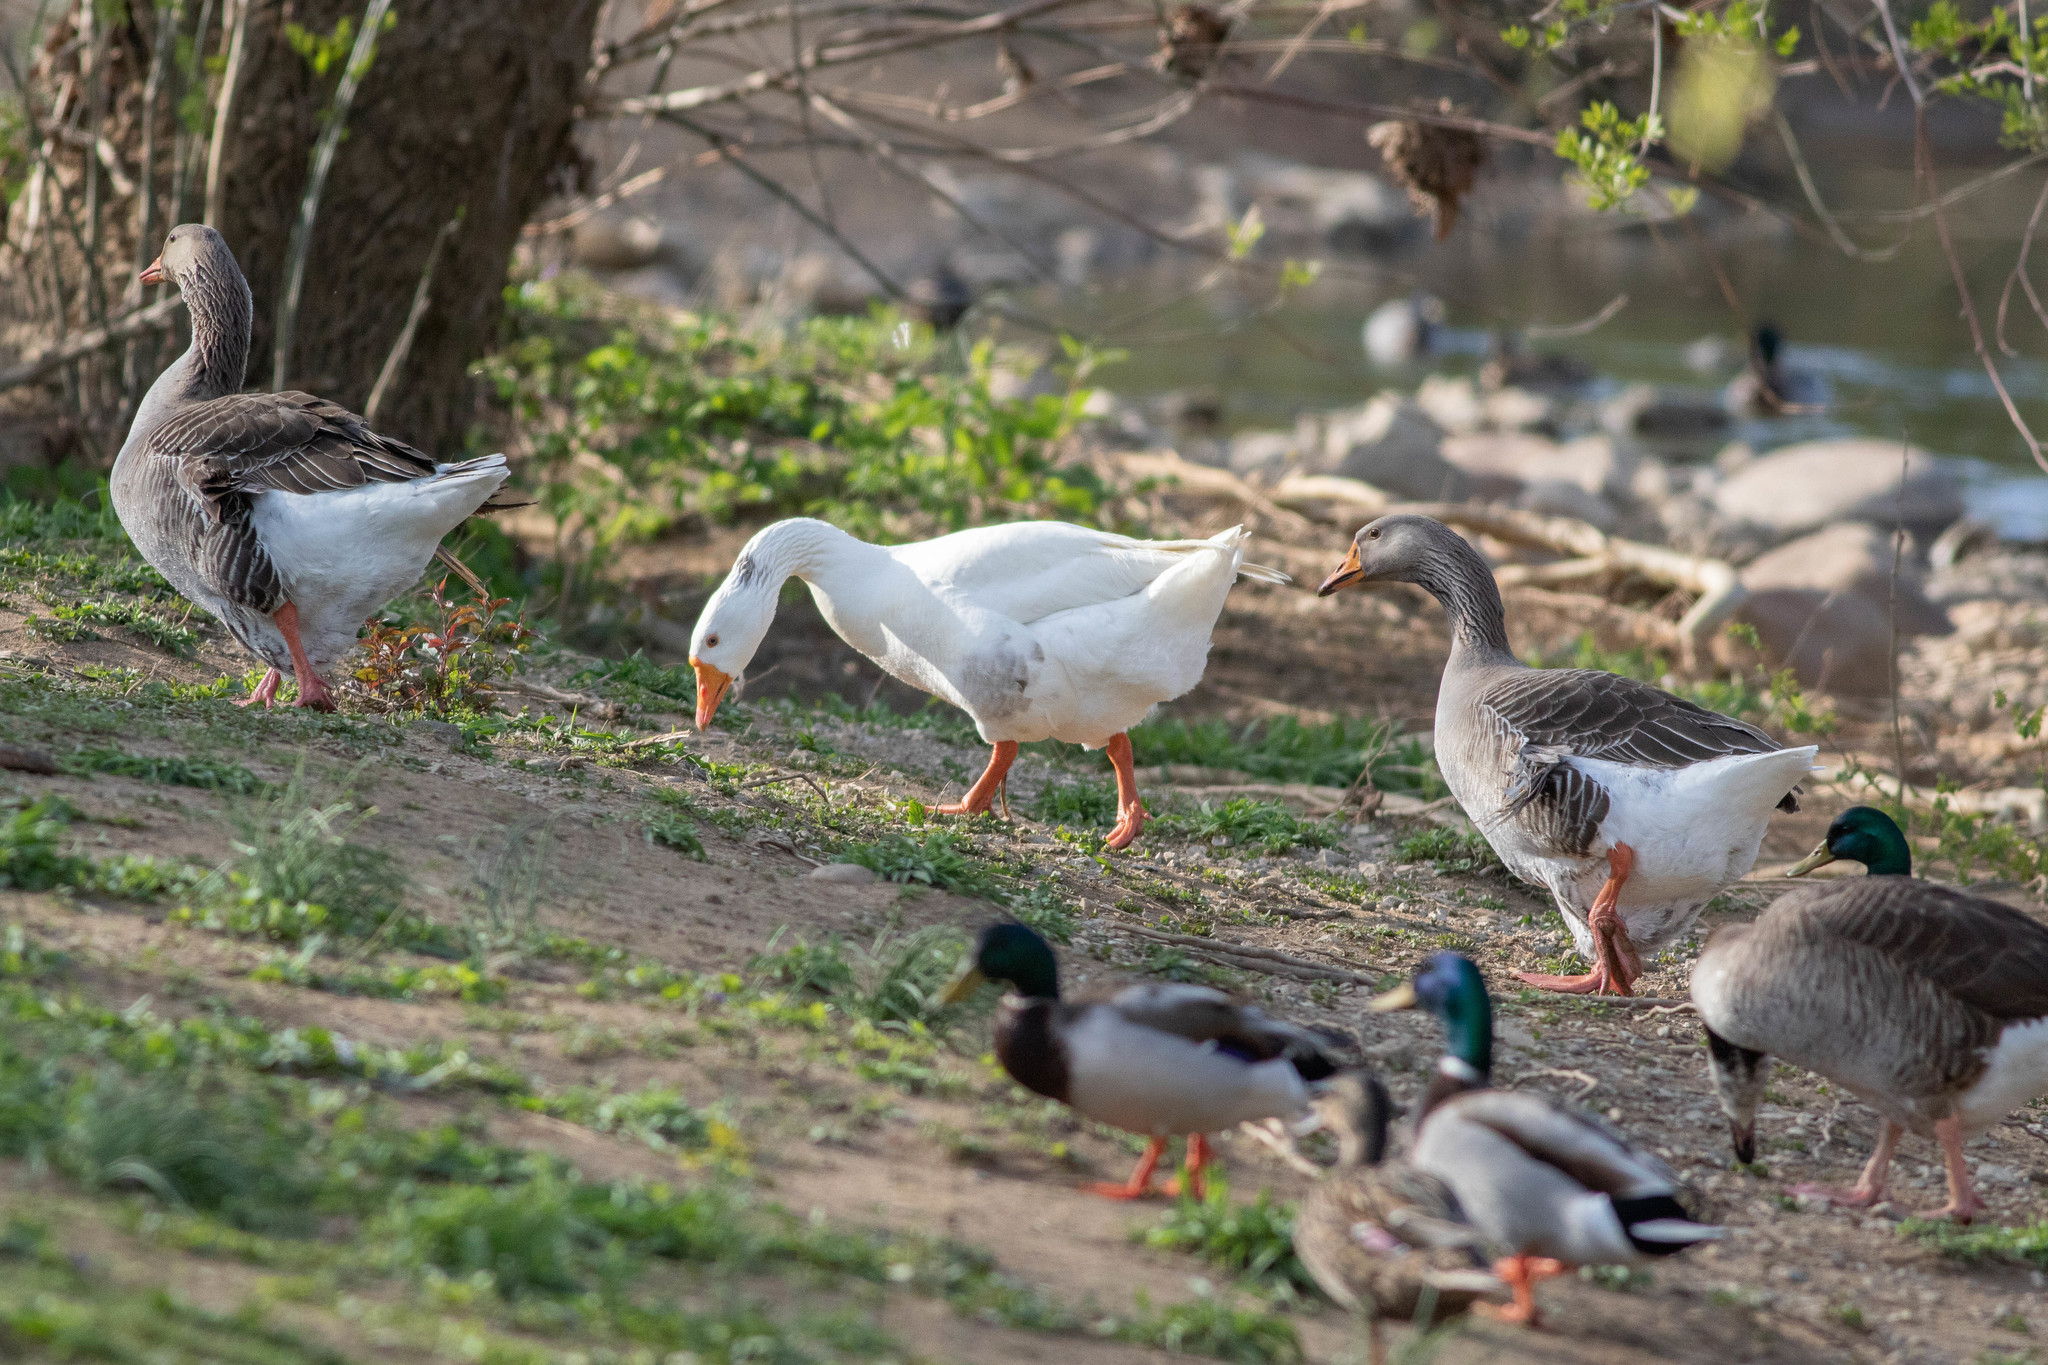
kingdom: Animalia
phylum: Chordata
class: Aves
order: Anseriformes
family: Anatidae
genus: Anser
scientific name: Anser anser
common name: Greylag goose
